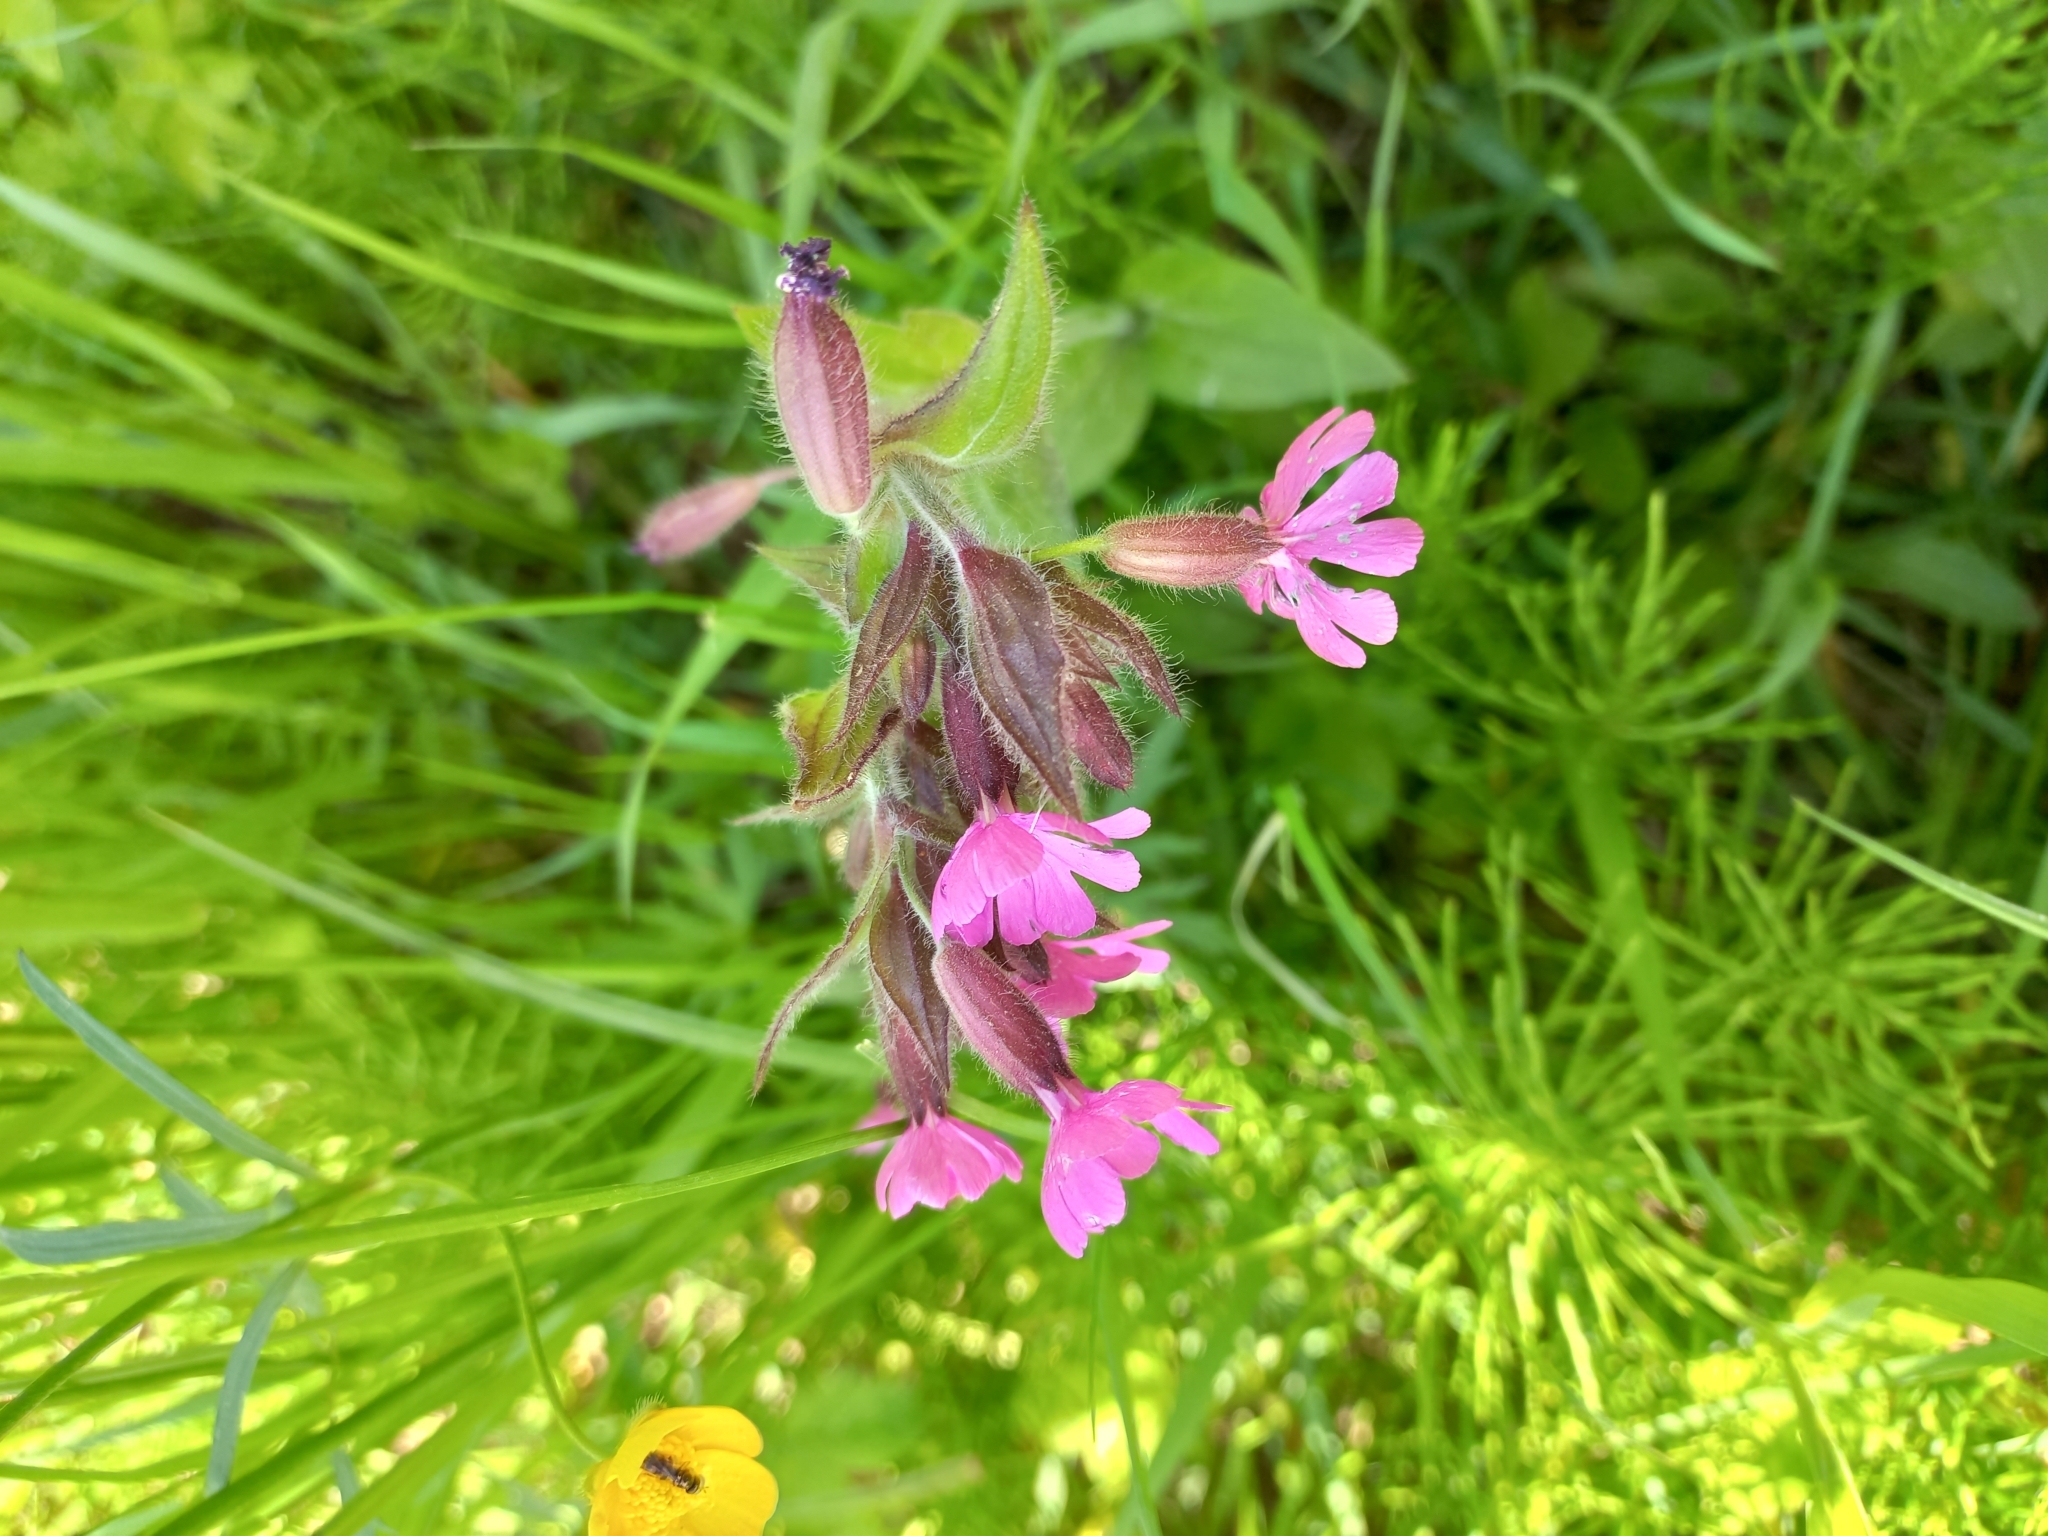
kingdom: Plantae
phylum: Tracheophyta
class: Magnoliopsida
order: Caryophyllales
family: Caryophyllaceae
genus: Silene
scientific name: Silene dioica
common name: Red campion
